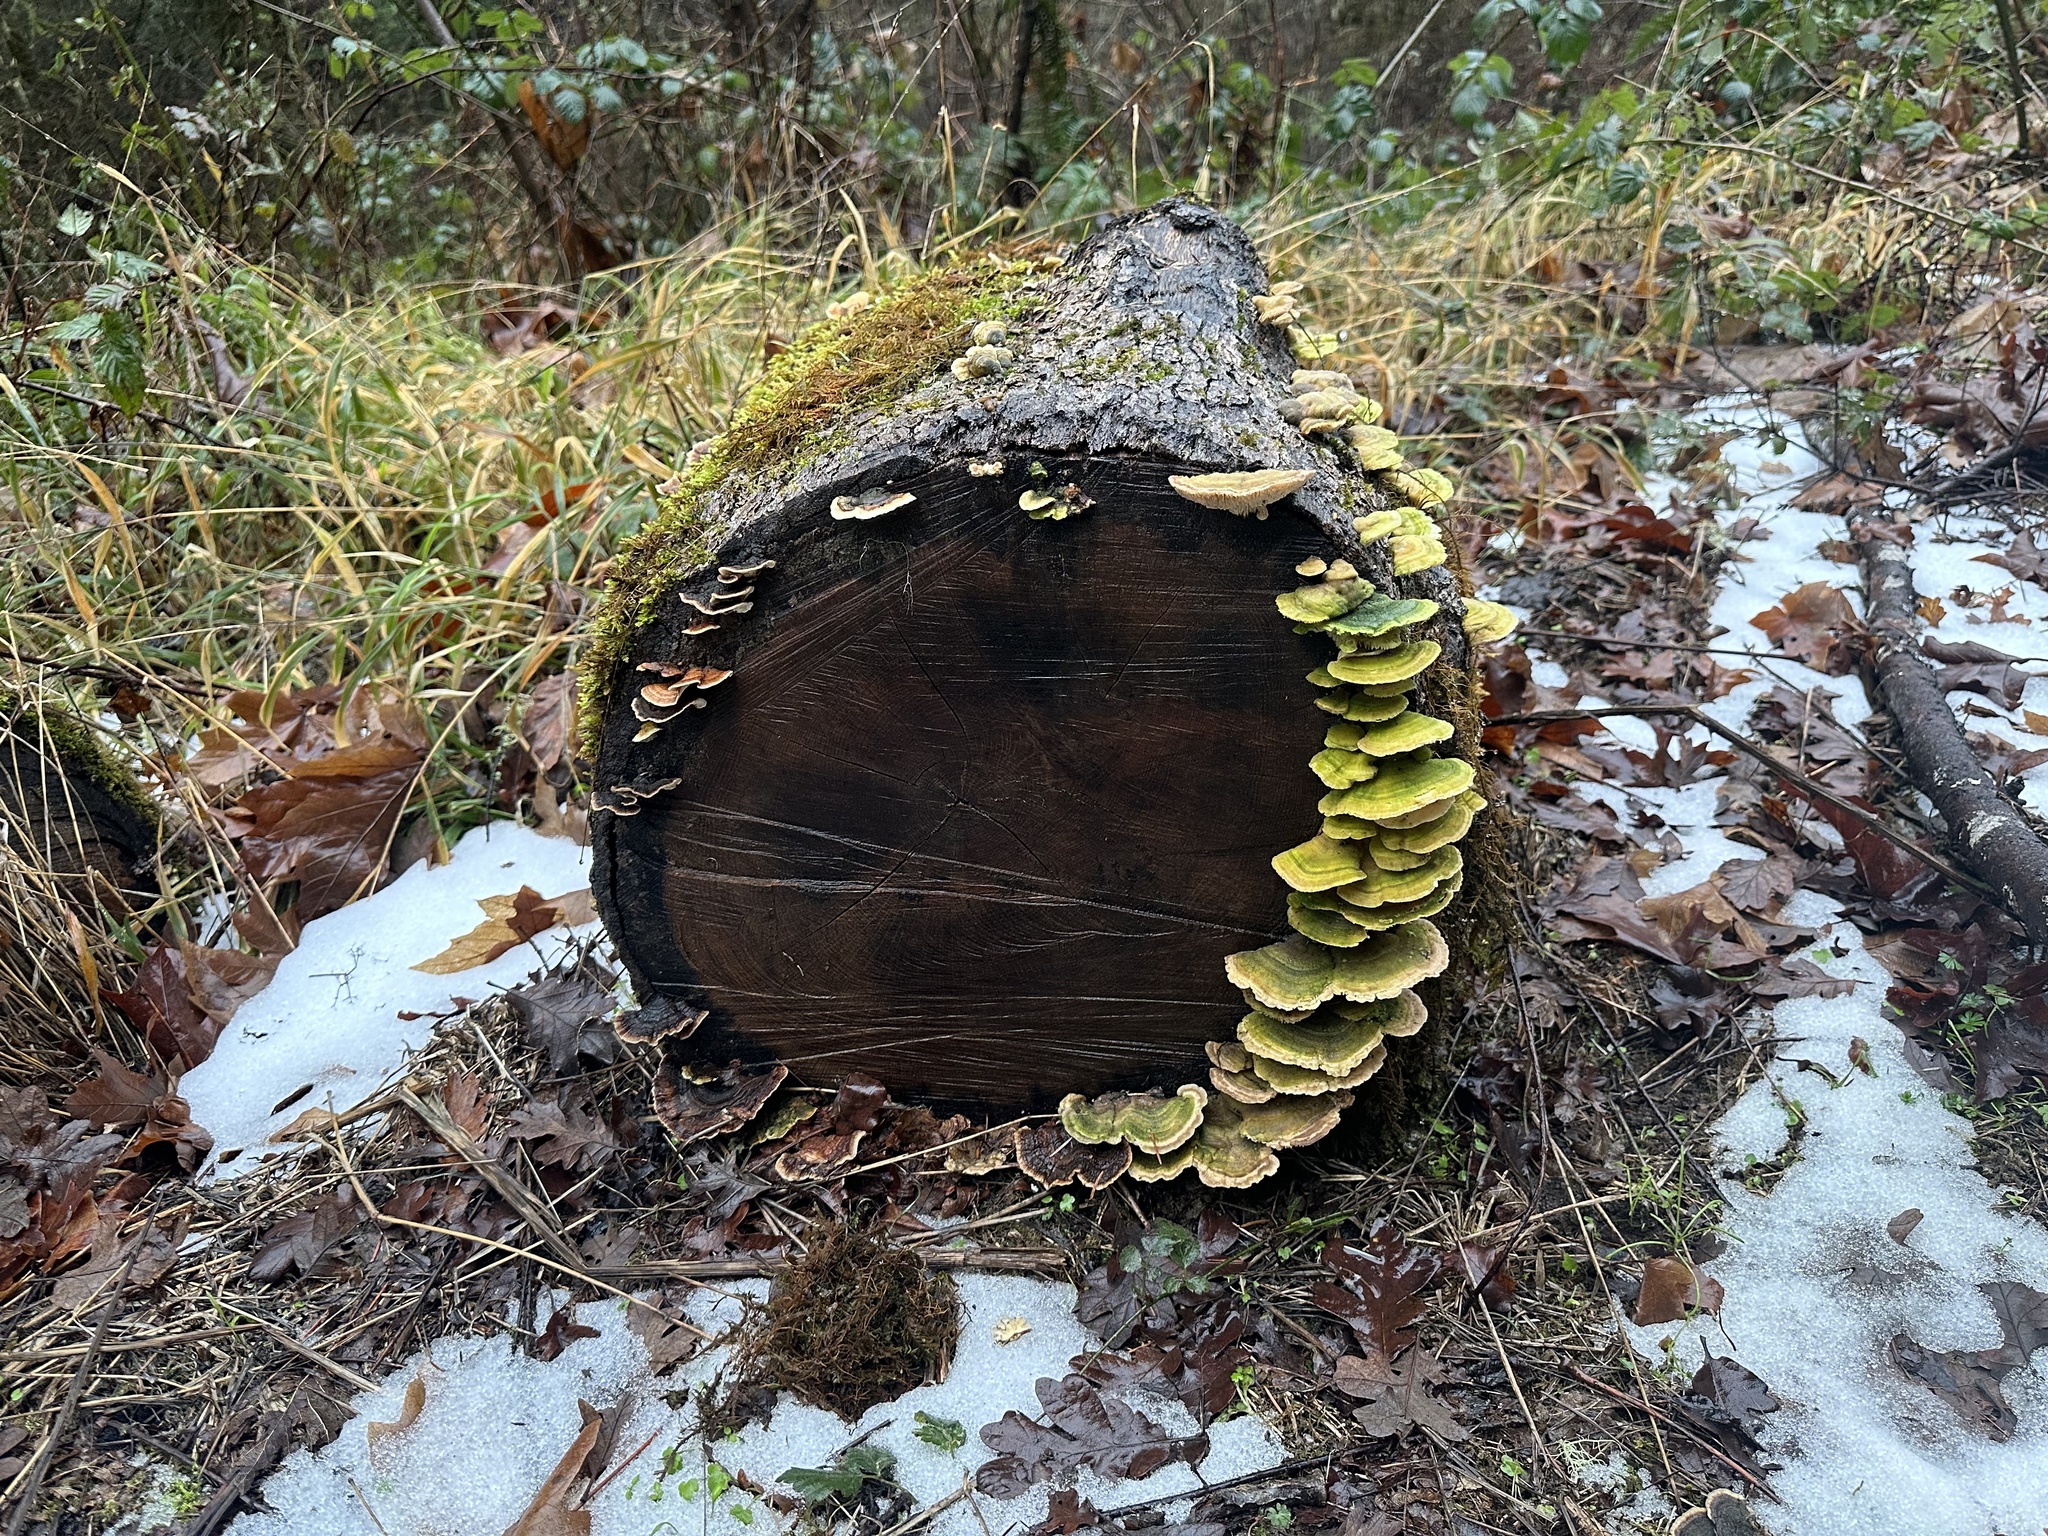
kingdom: Fungi
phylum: Basidiomycota
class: Agaricomycetes
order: Polyporales
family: Polyporaceae
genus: Lenzites
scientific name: Lenzites betulinus
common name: Birch mazegill
